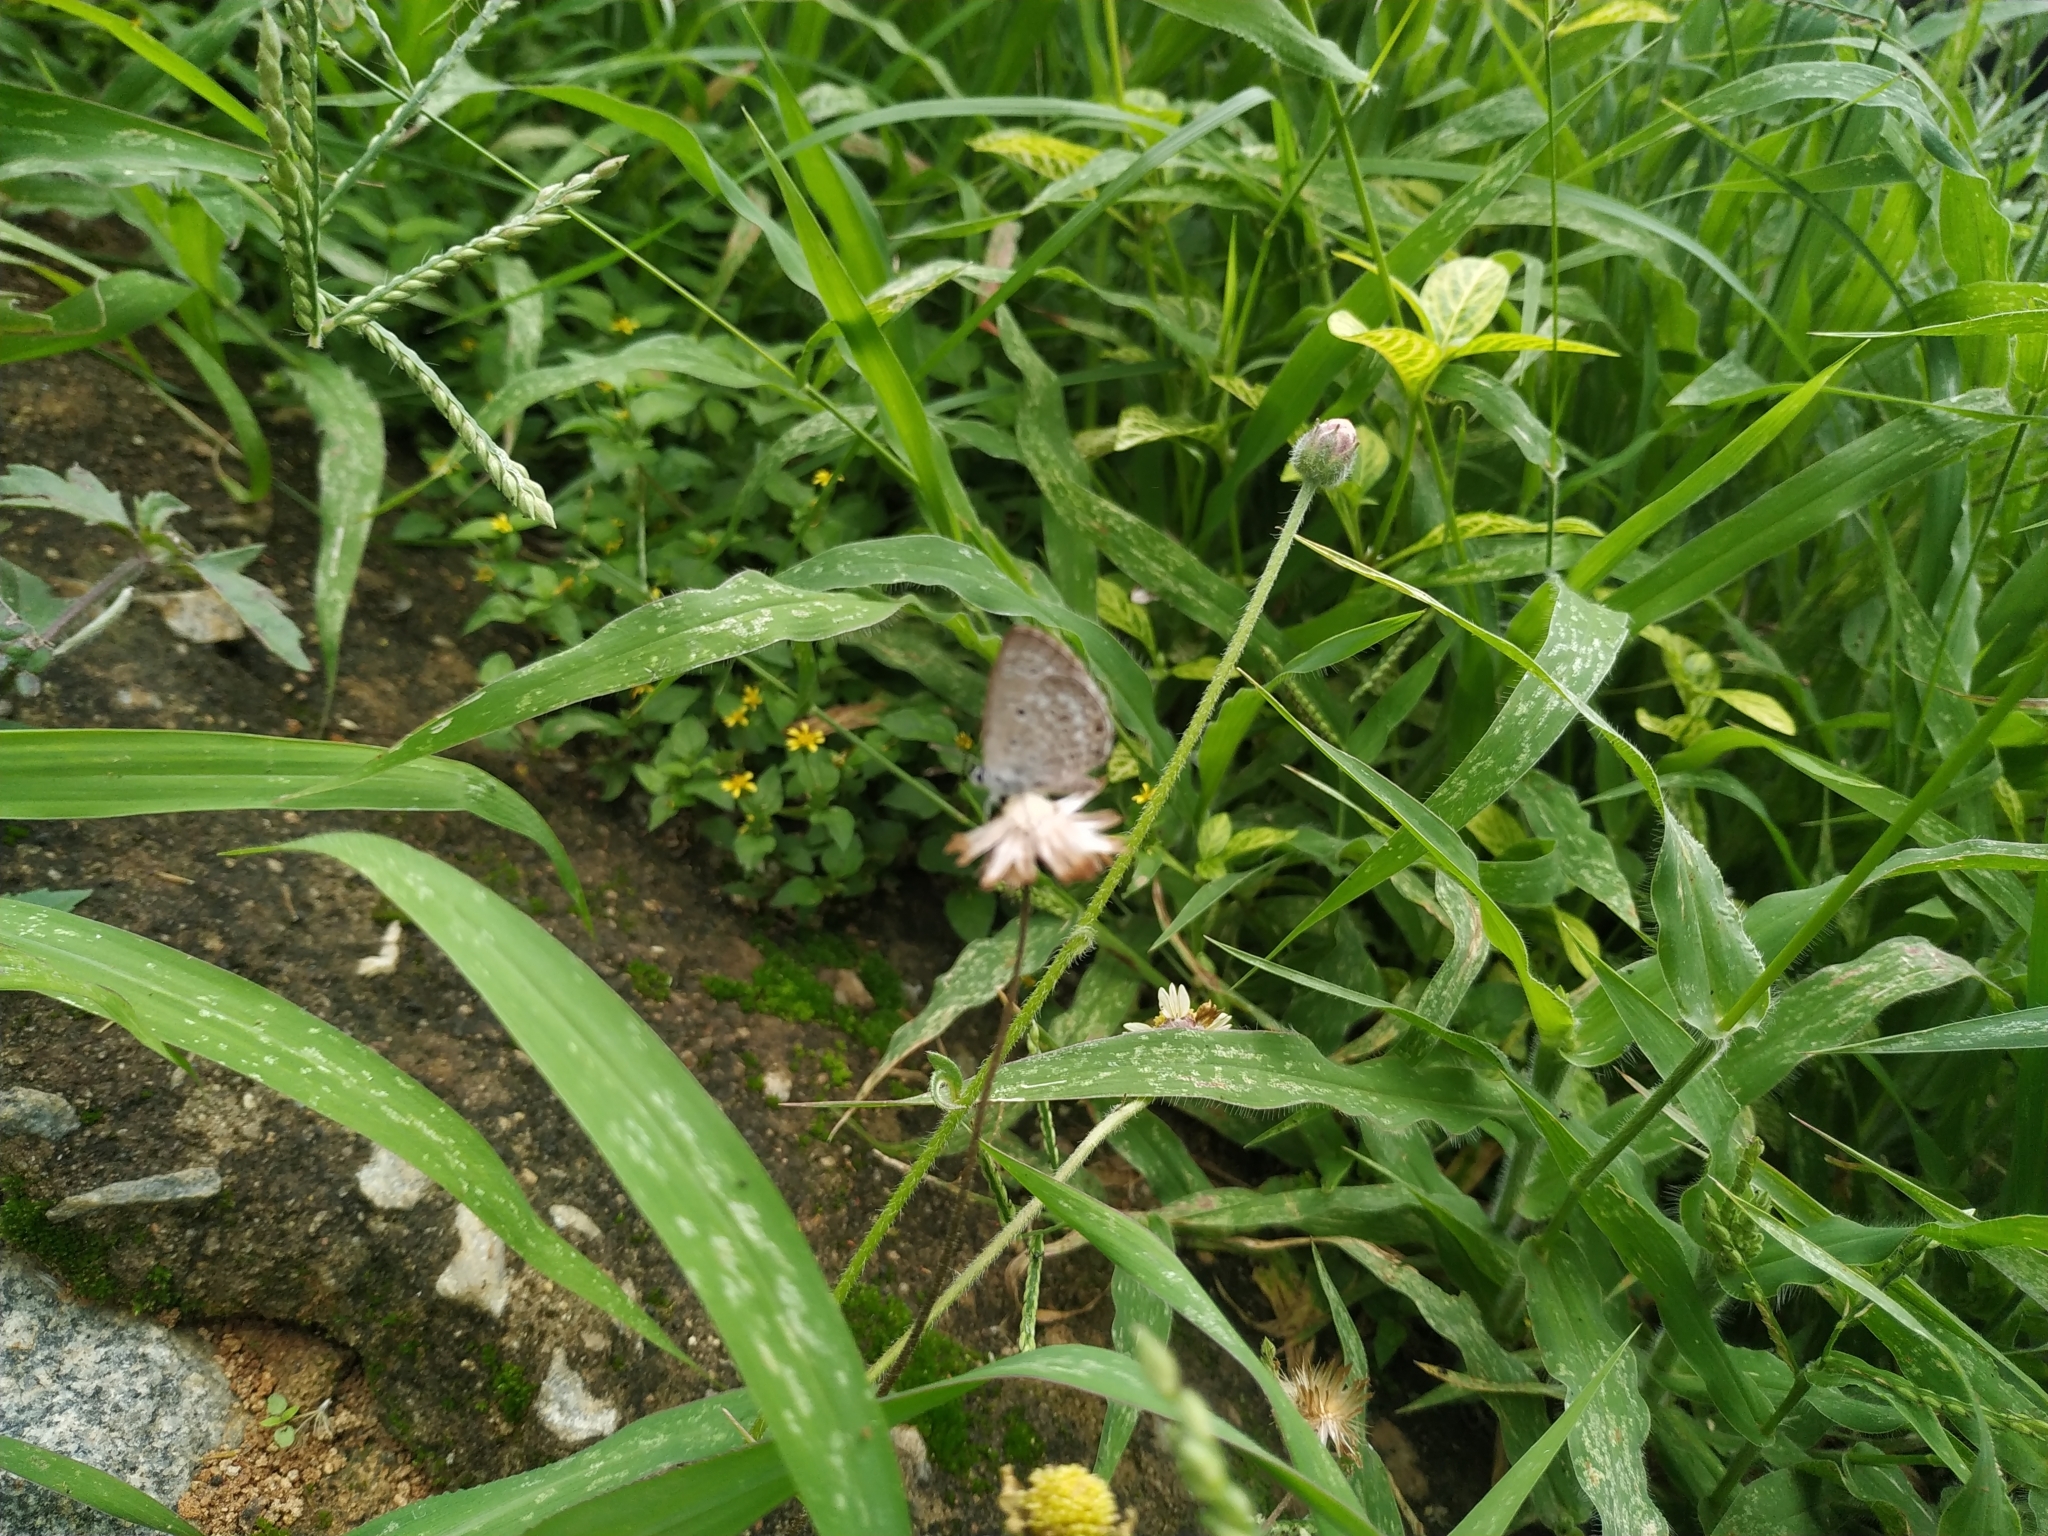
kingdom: Animalia
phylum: Arthropoda
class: Insecta
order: Lepidoptera
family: Lycaenidae
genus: Chilades
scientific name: Chilades laius
